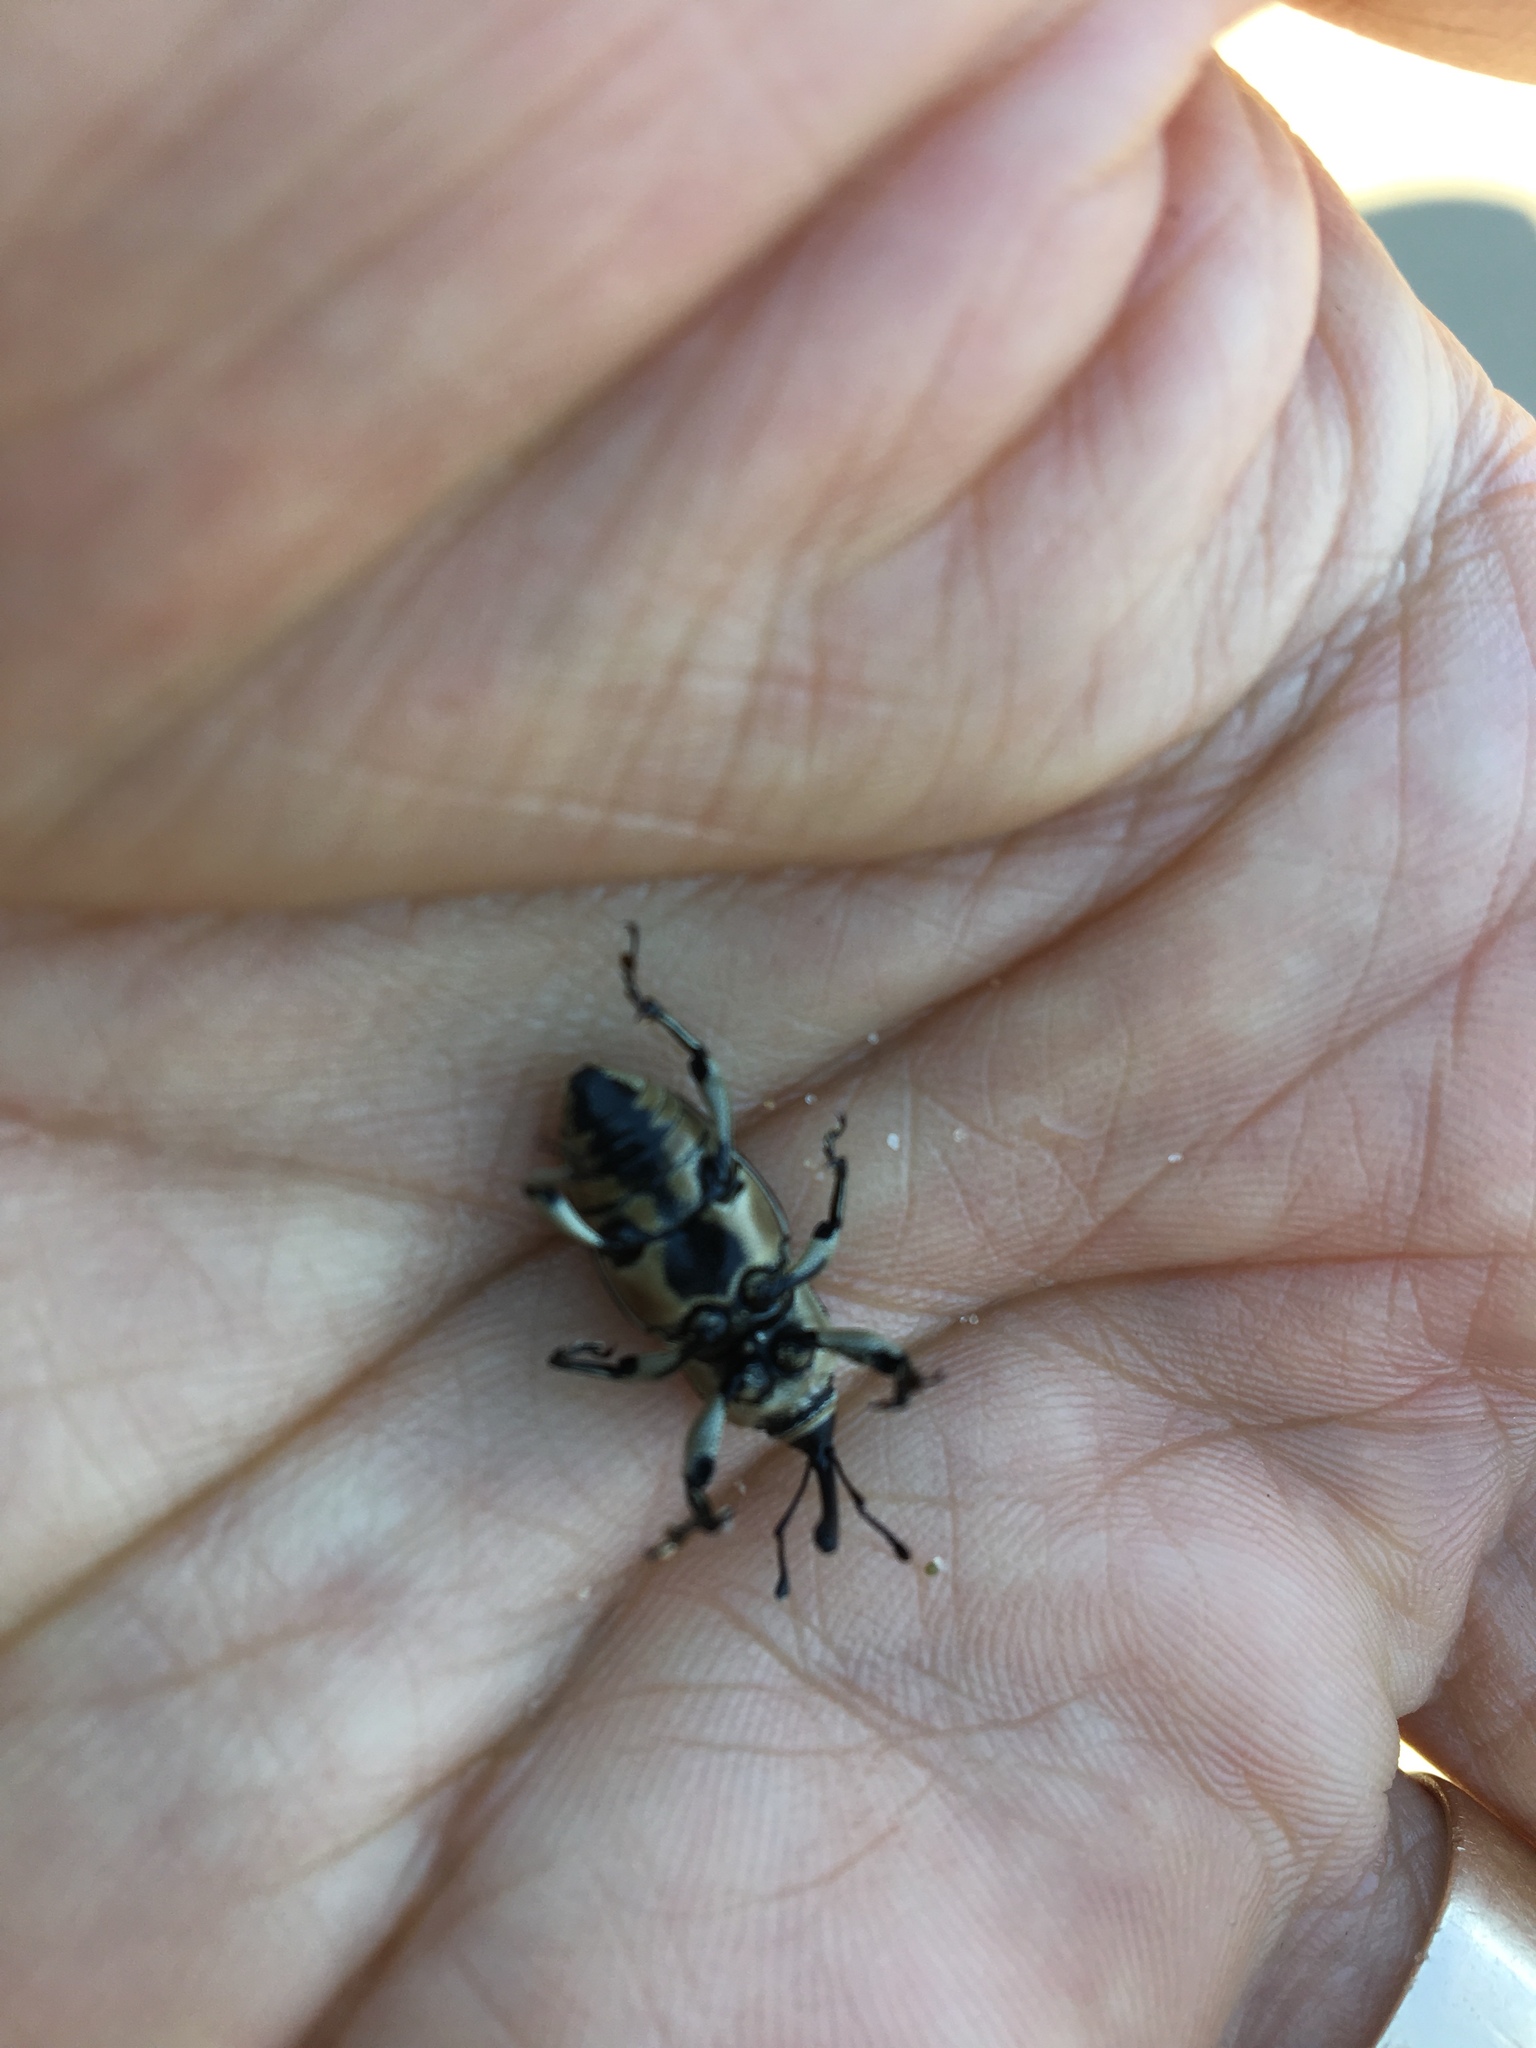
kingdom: Animalia
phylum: Arthropoda
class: Insecta
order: Coleoptera
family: Dryophthoridae
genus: Sphenophorus
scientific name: Sphenophorus aequalis
